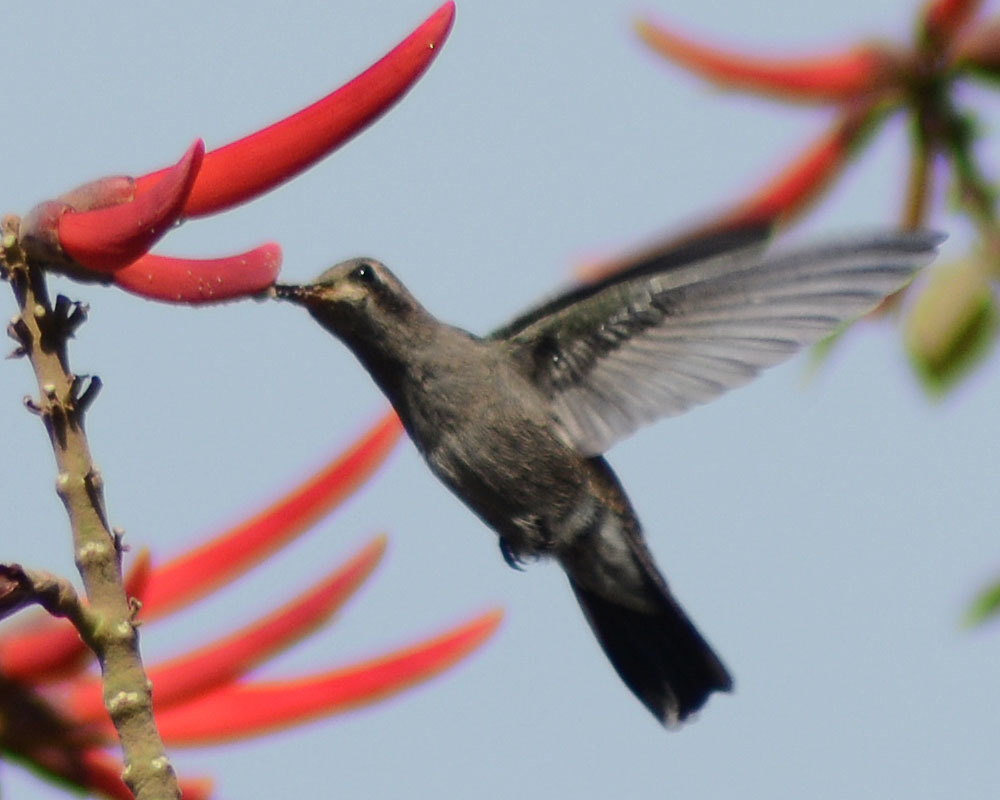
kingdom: Animalia
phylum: Chordata
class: Aves
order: Apodiformes
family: Trochilidae
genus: Cynanthus
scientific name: Cynanthus latirostris
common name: Broad-billed hummingbird
